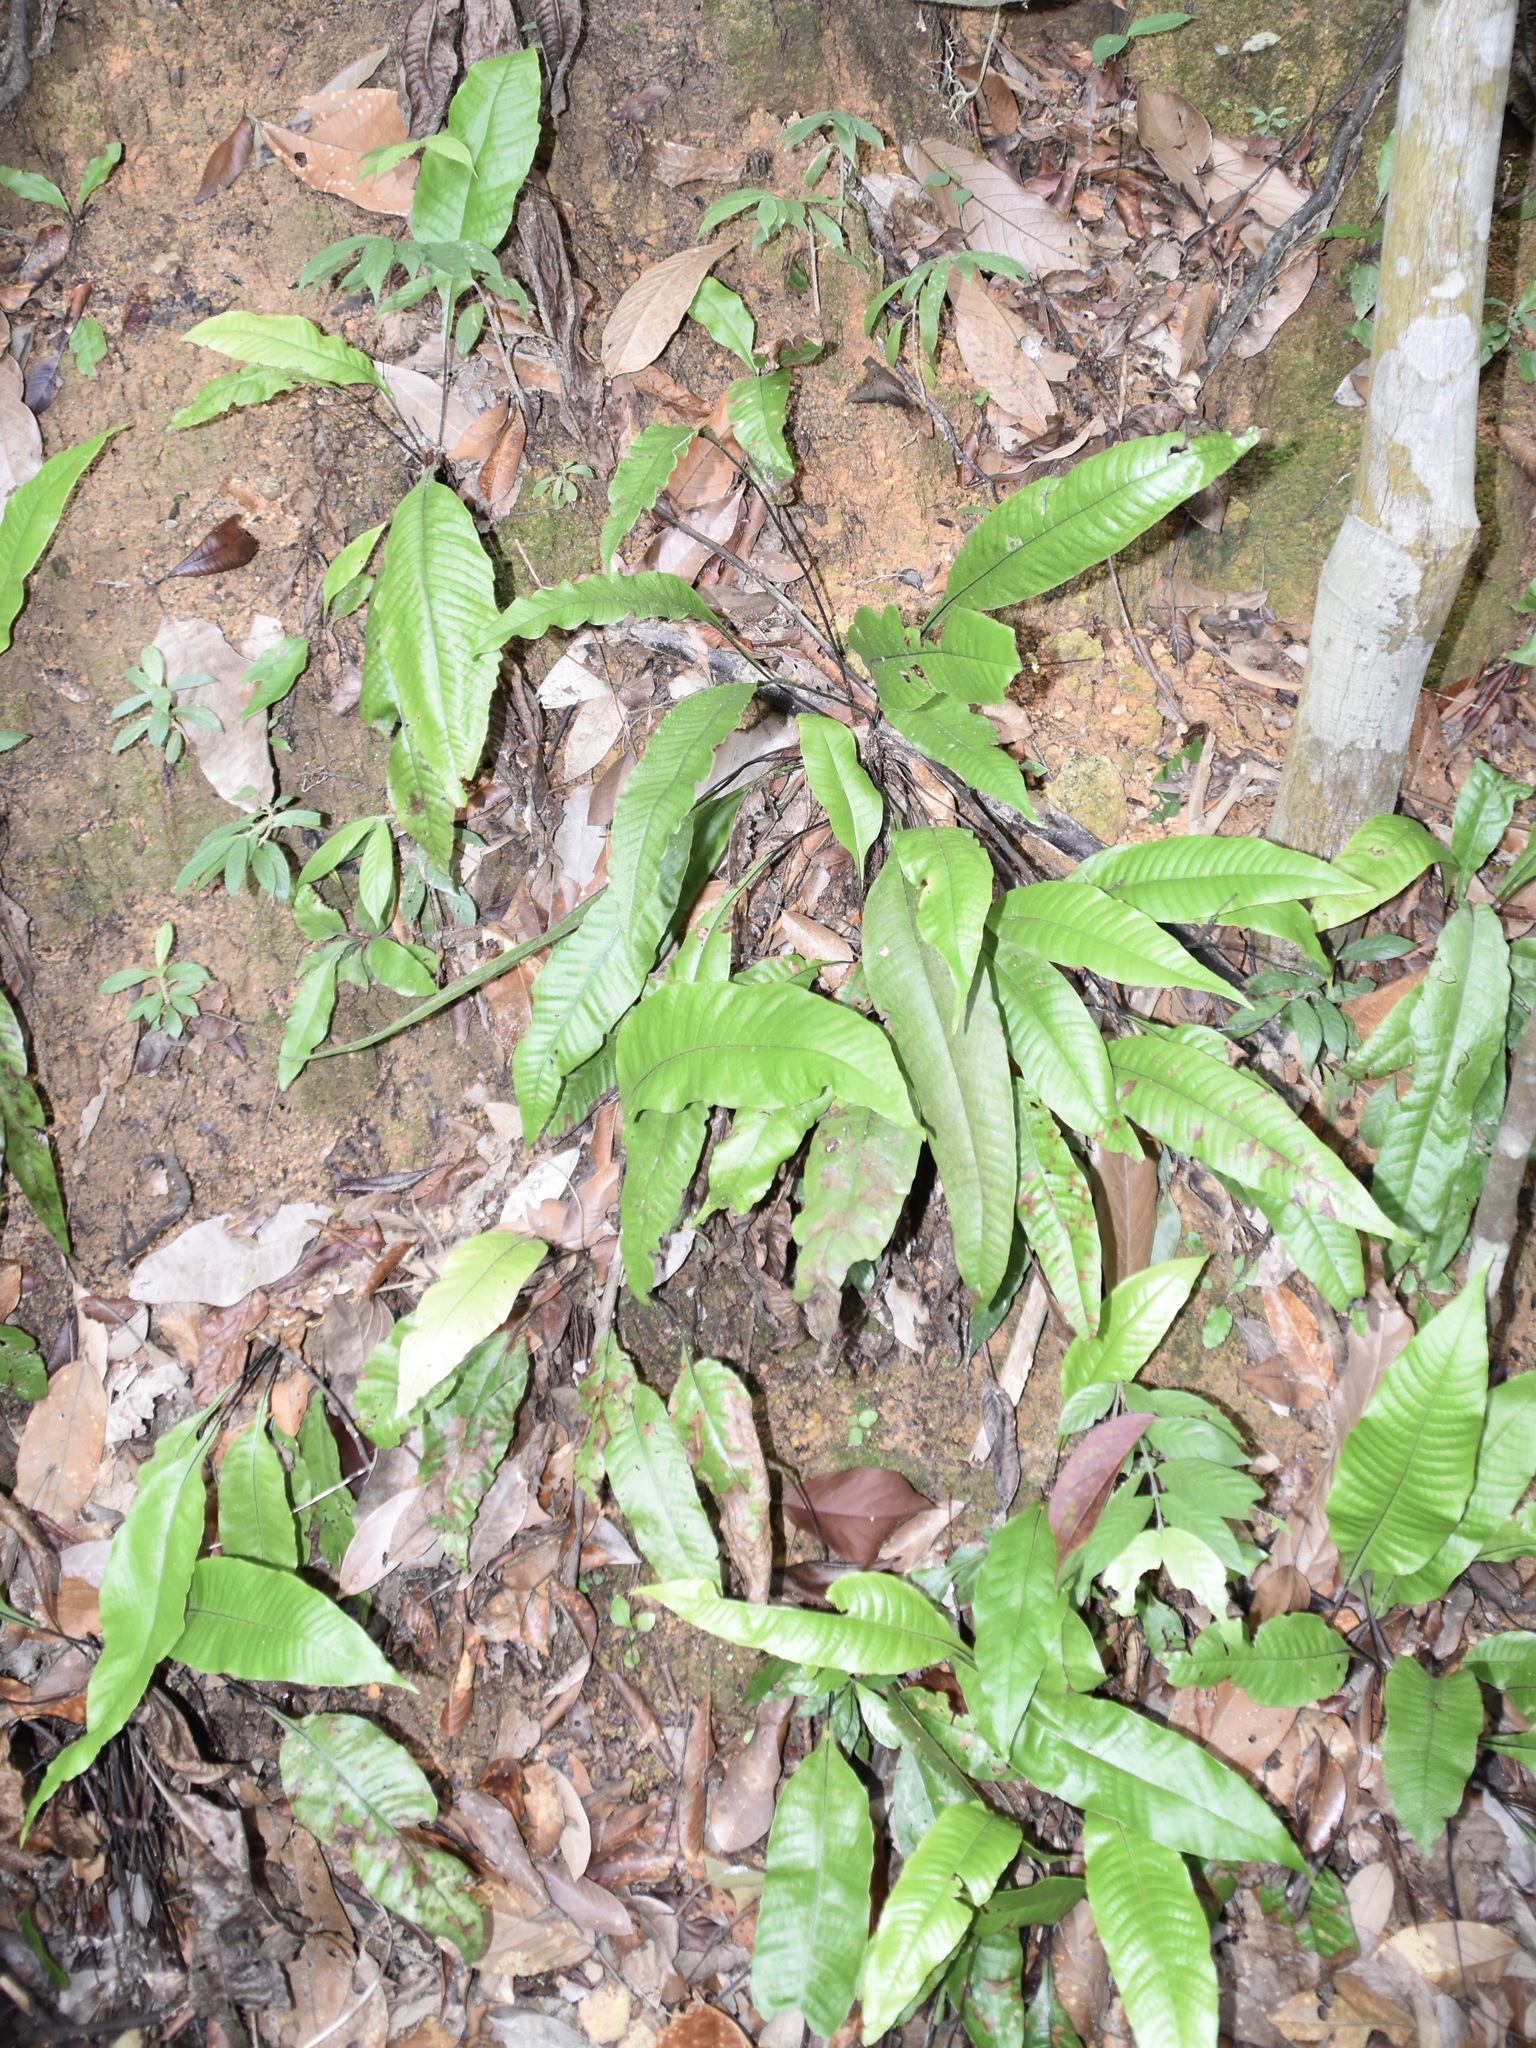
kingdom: Plantae
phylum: Tracheophyta
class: Polypodiopsida
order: Polypodiales
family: Tectariaceae
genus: Tectaria
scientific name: Tectaria singaporiana
